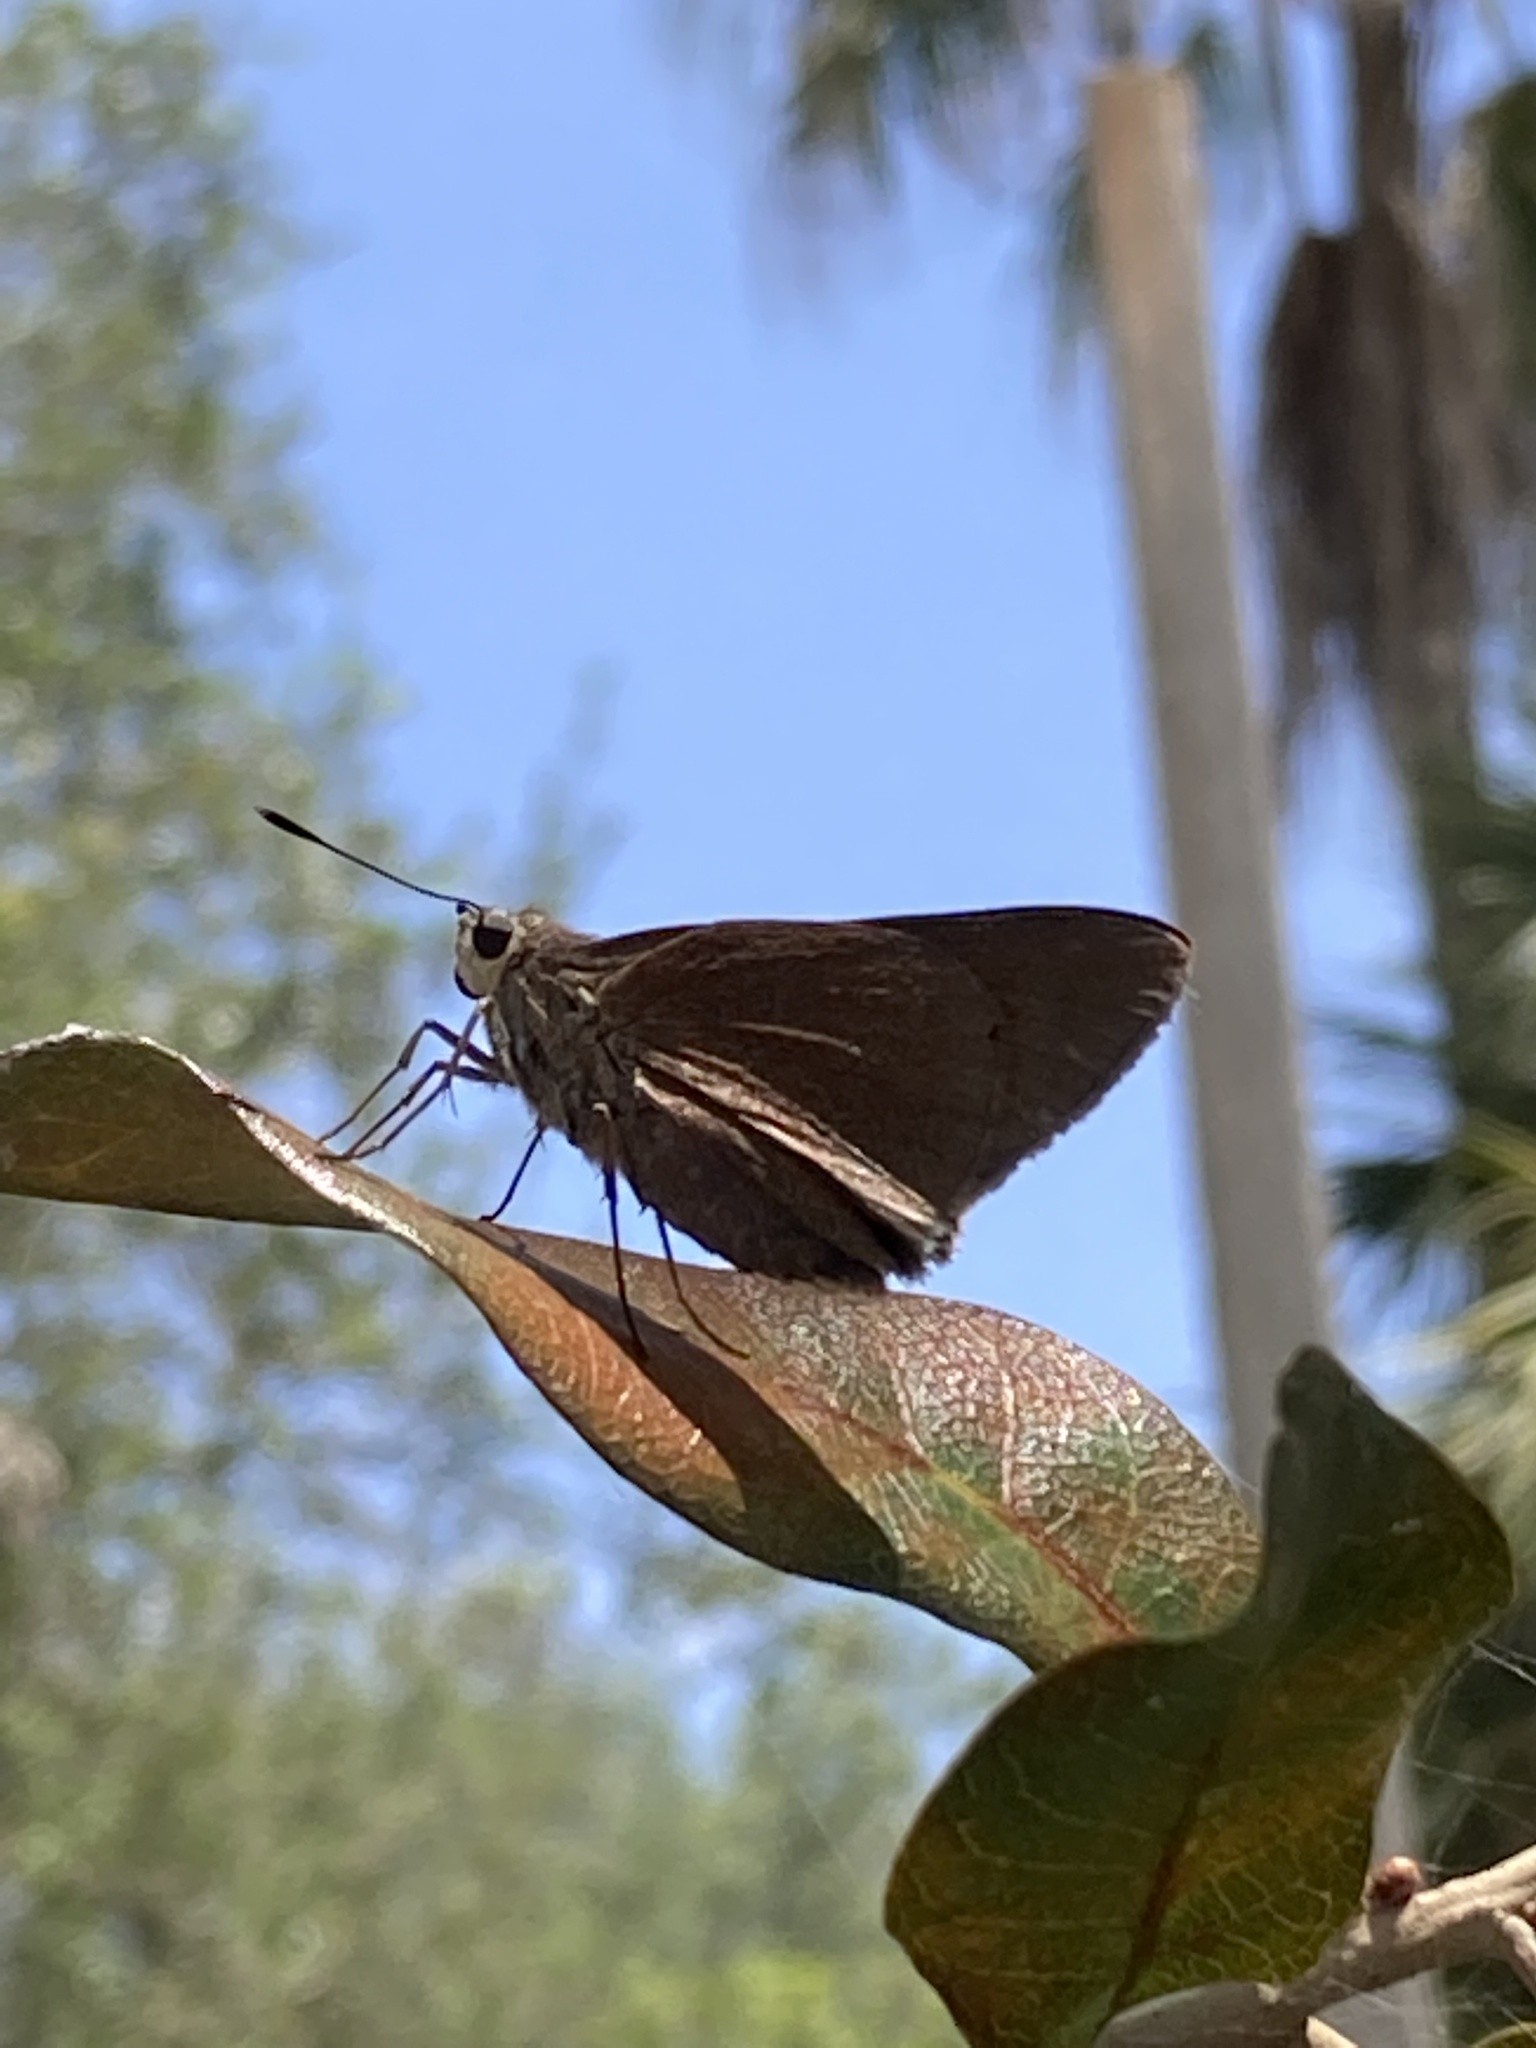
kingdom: Animalia
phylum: Arthropoda
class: Insecta
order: Lepidoptera
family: Hesperiidae
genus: Asbolis
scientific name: Asbolis capucinus
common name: Monk skipper
